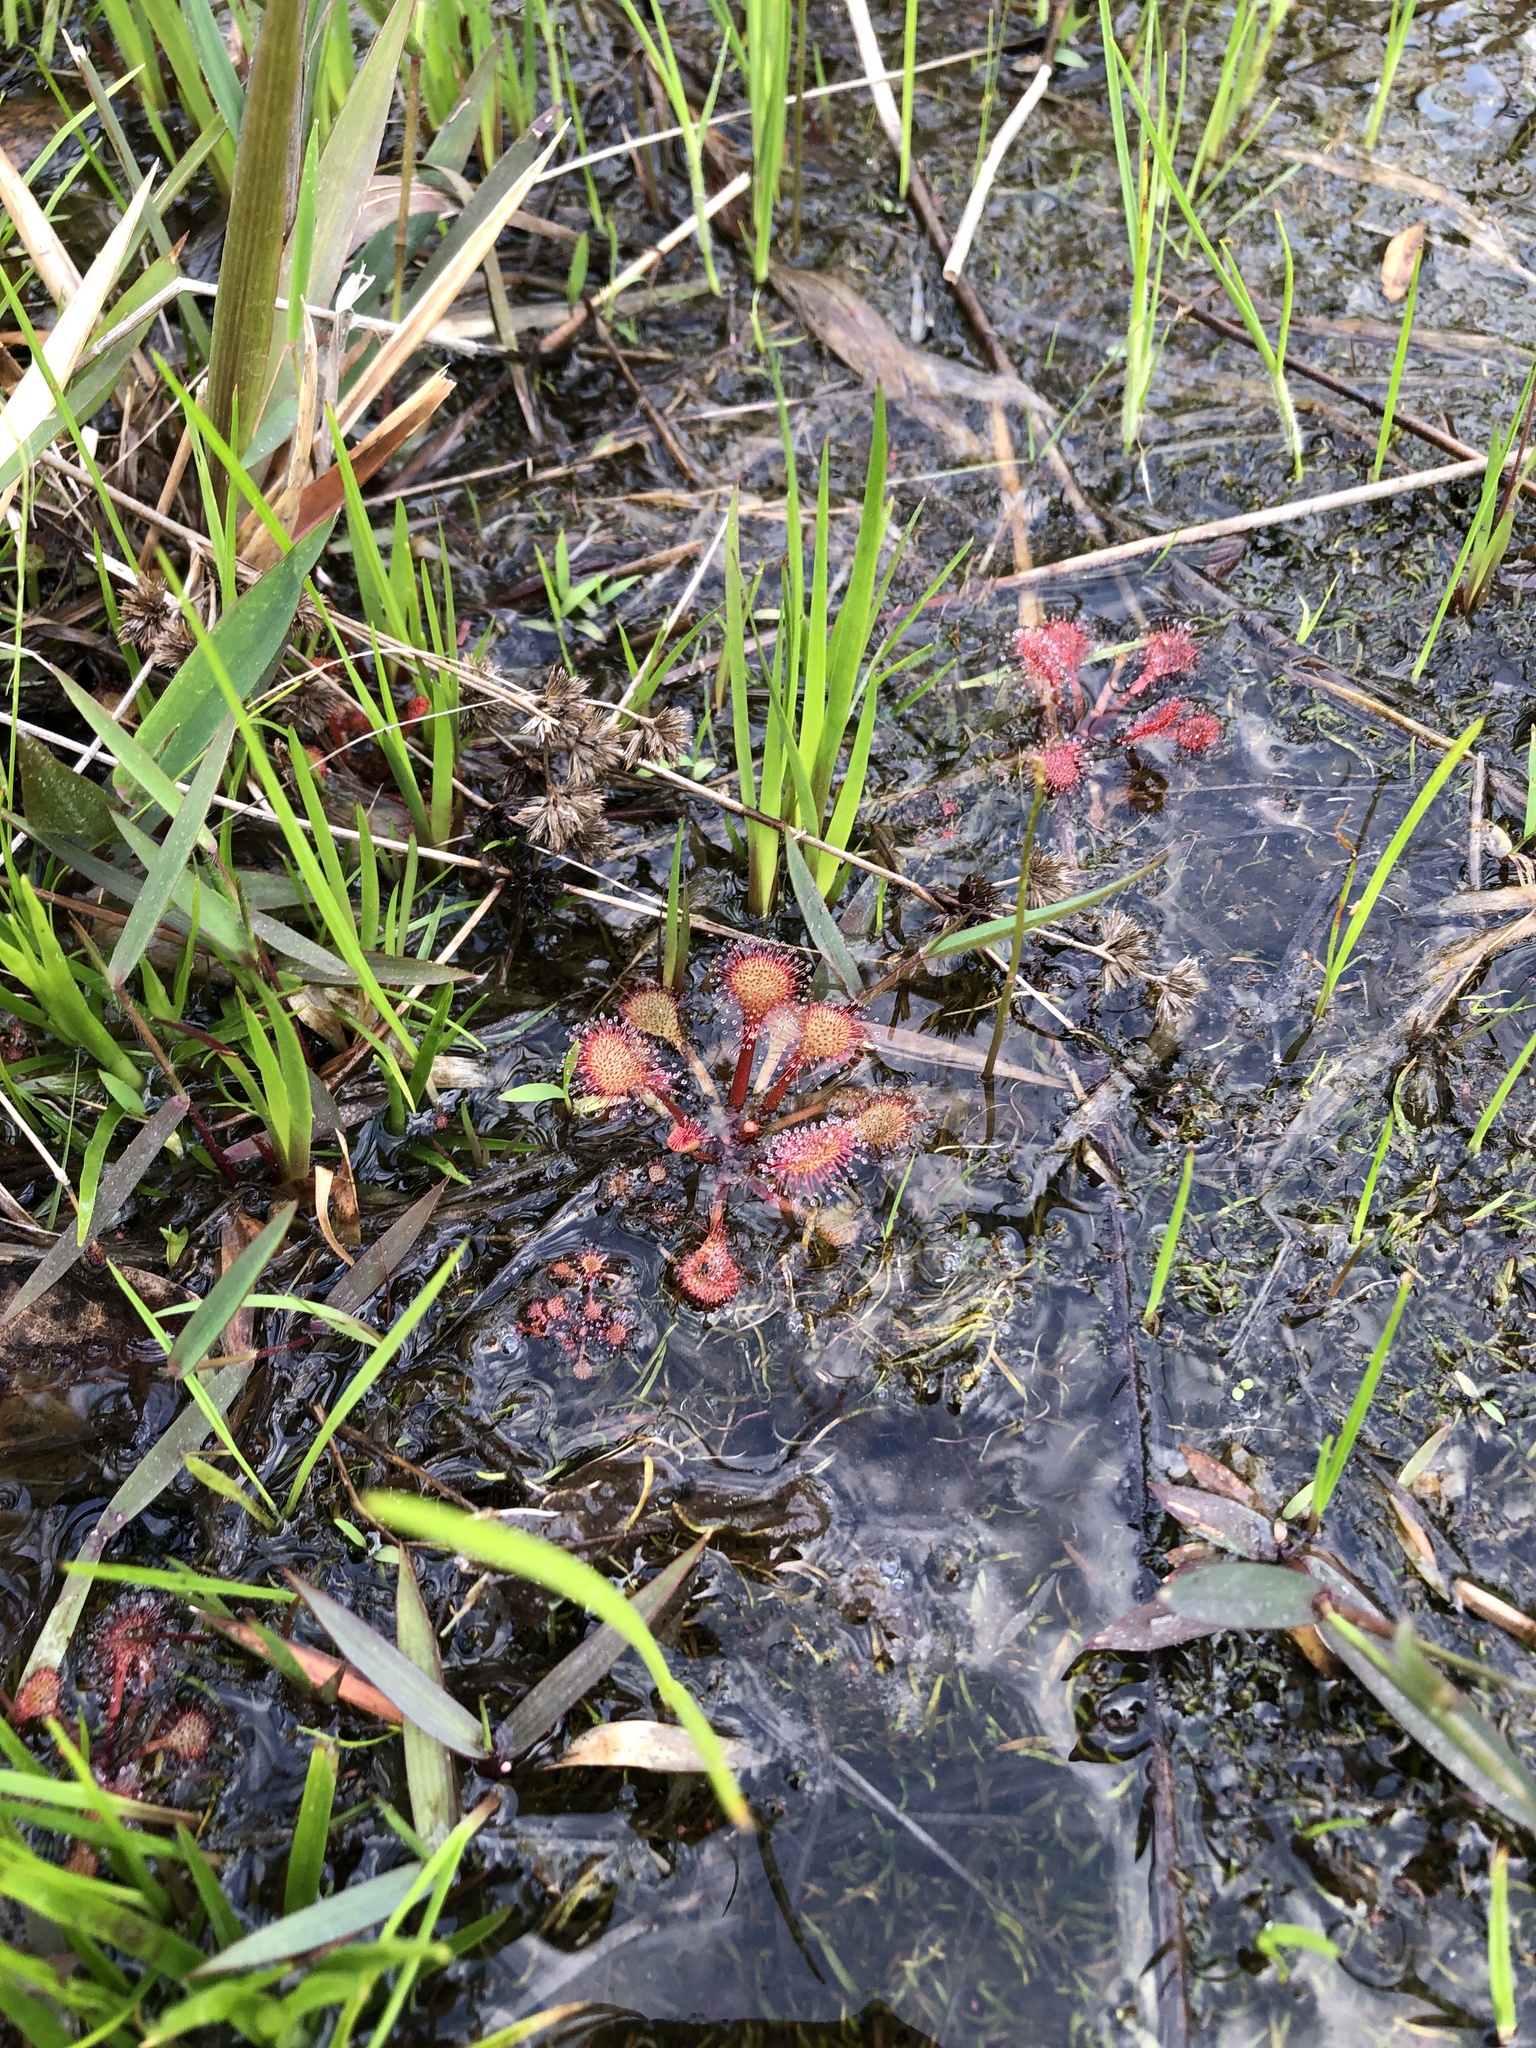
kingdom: Plantae
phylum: Tracheophyta
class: Magnoliopsida
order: Caryophyllales
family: Droseraceae
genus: Drosera
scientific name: Drosera capillaris
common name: Pink sundew
